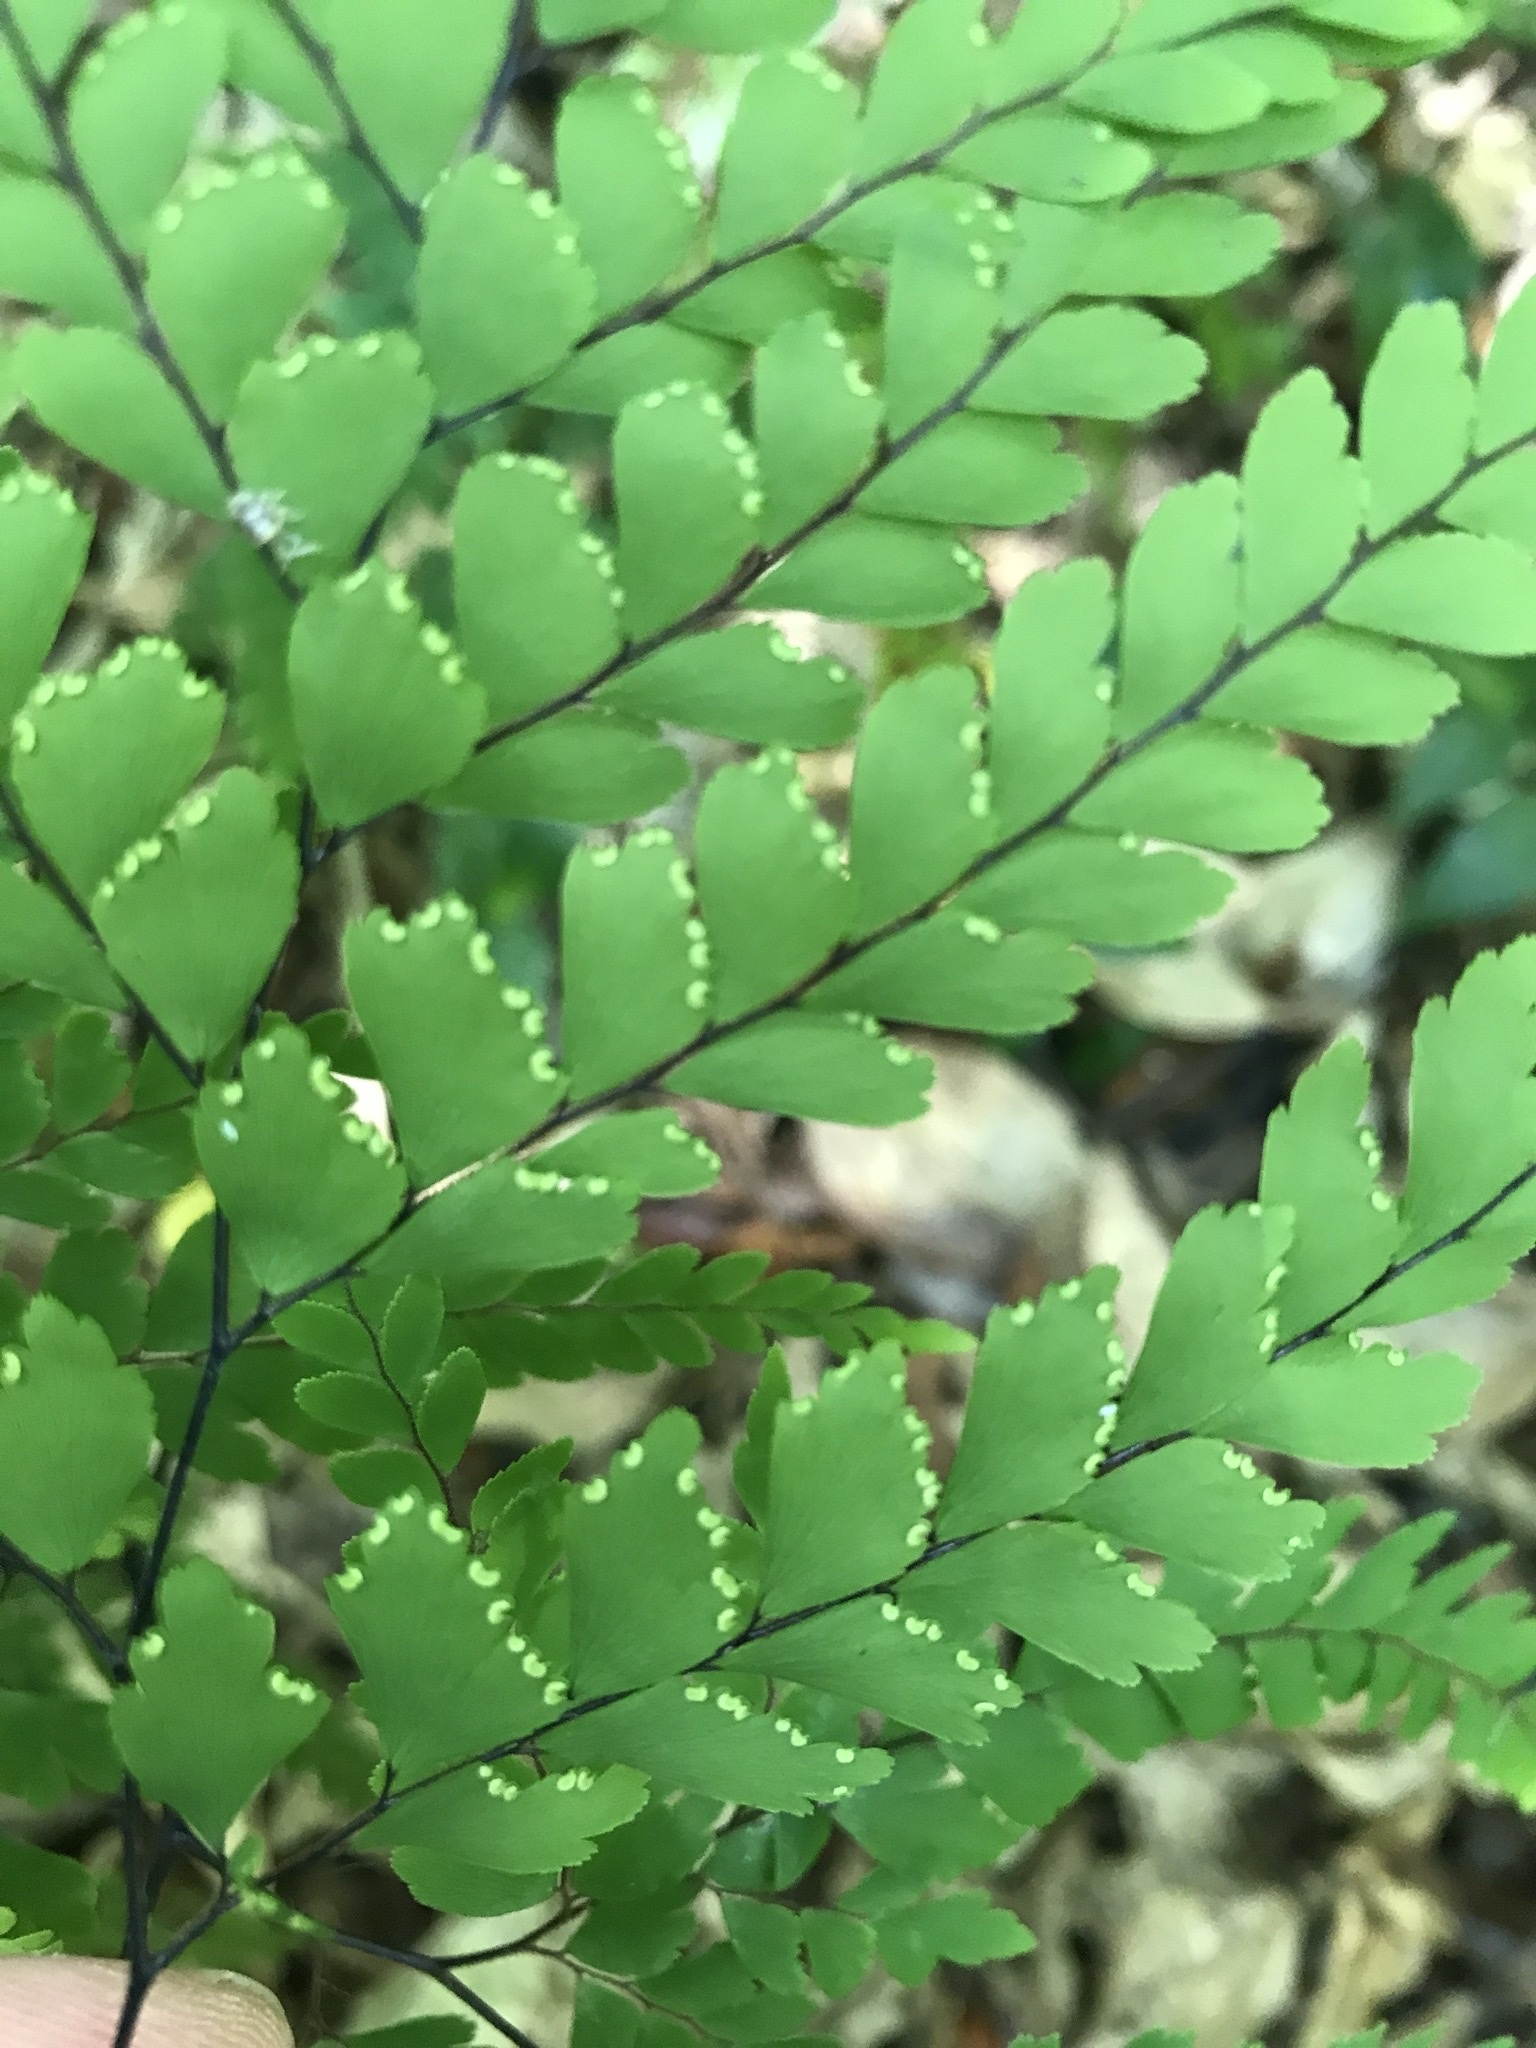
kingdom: Plantae
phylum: Tracheophyta
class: Polypodiopsida
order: Polypodiales
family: Pteridaceae
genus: Adiantum
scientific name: Adiantum formosum
